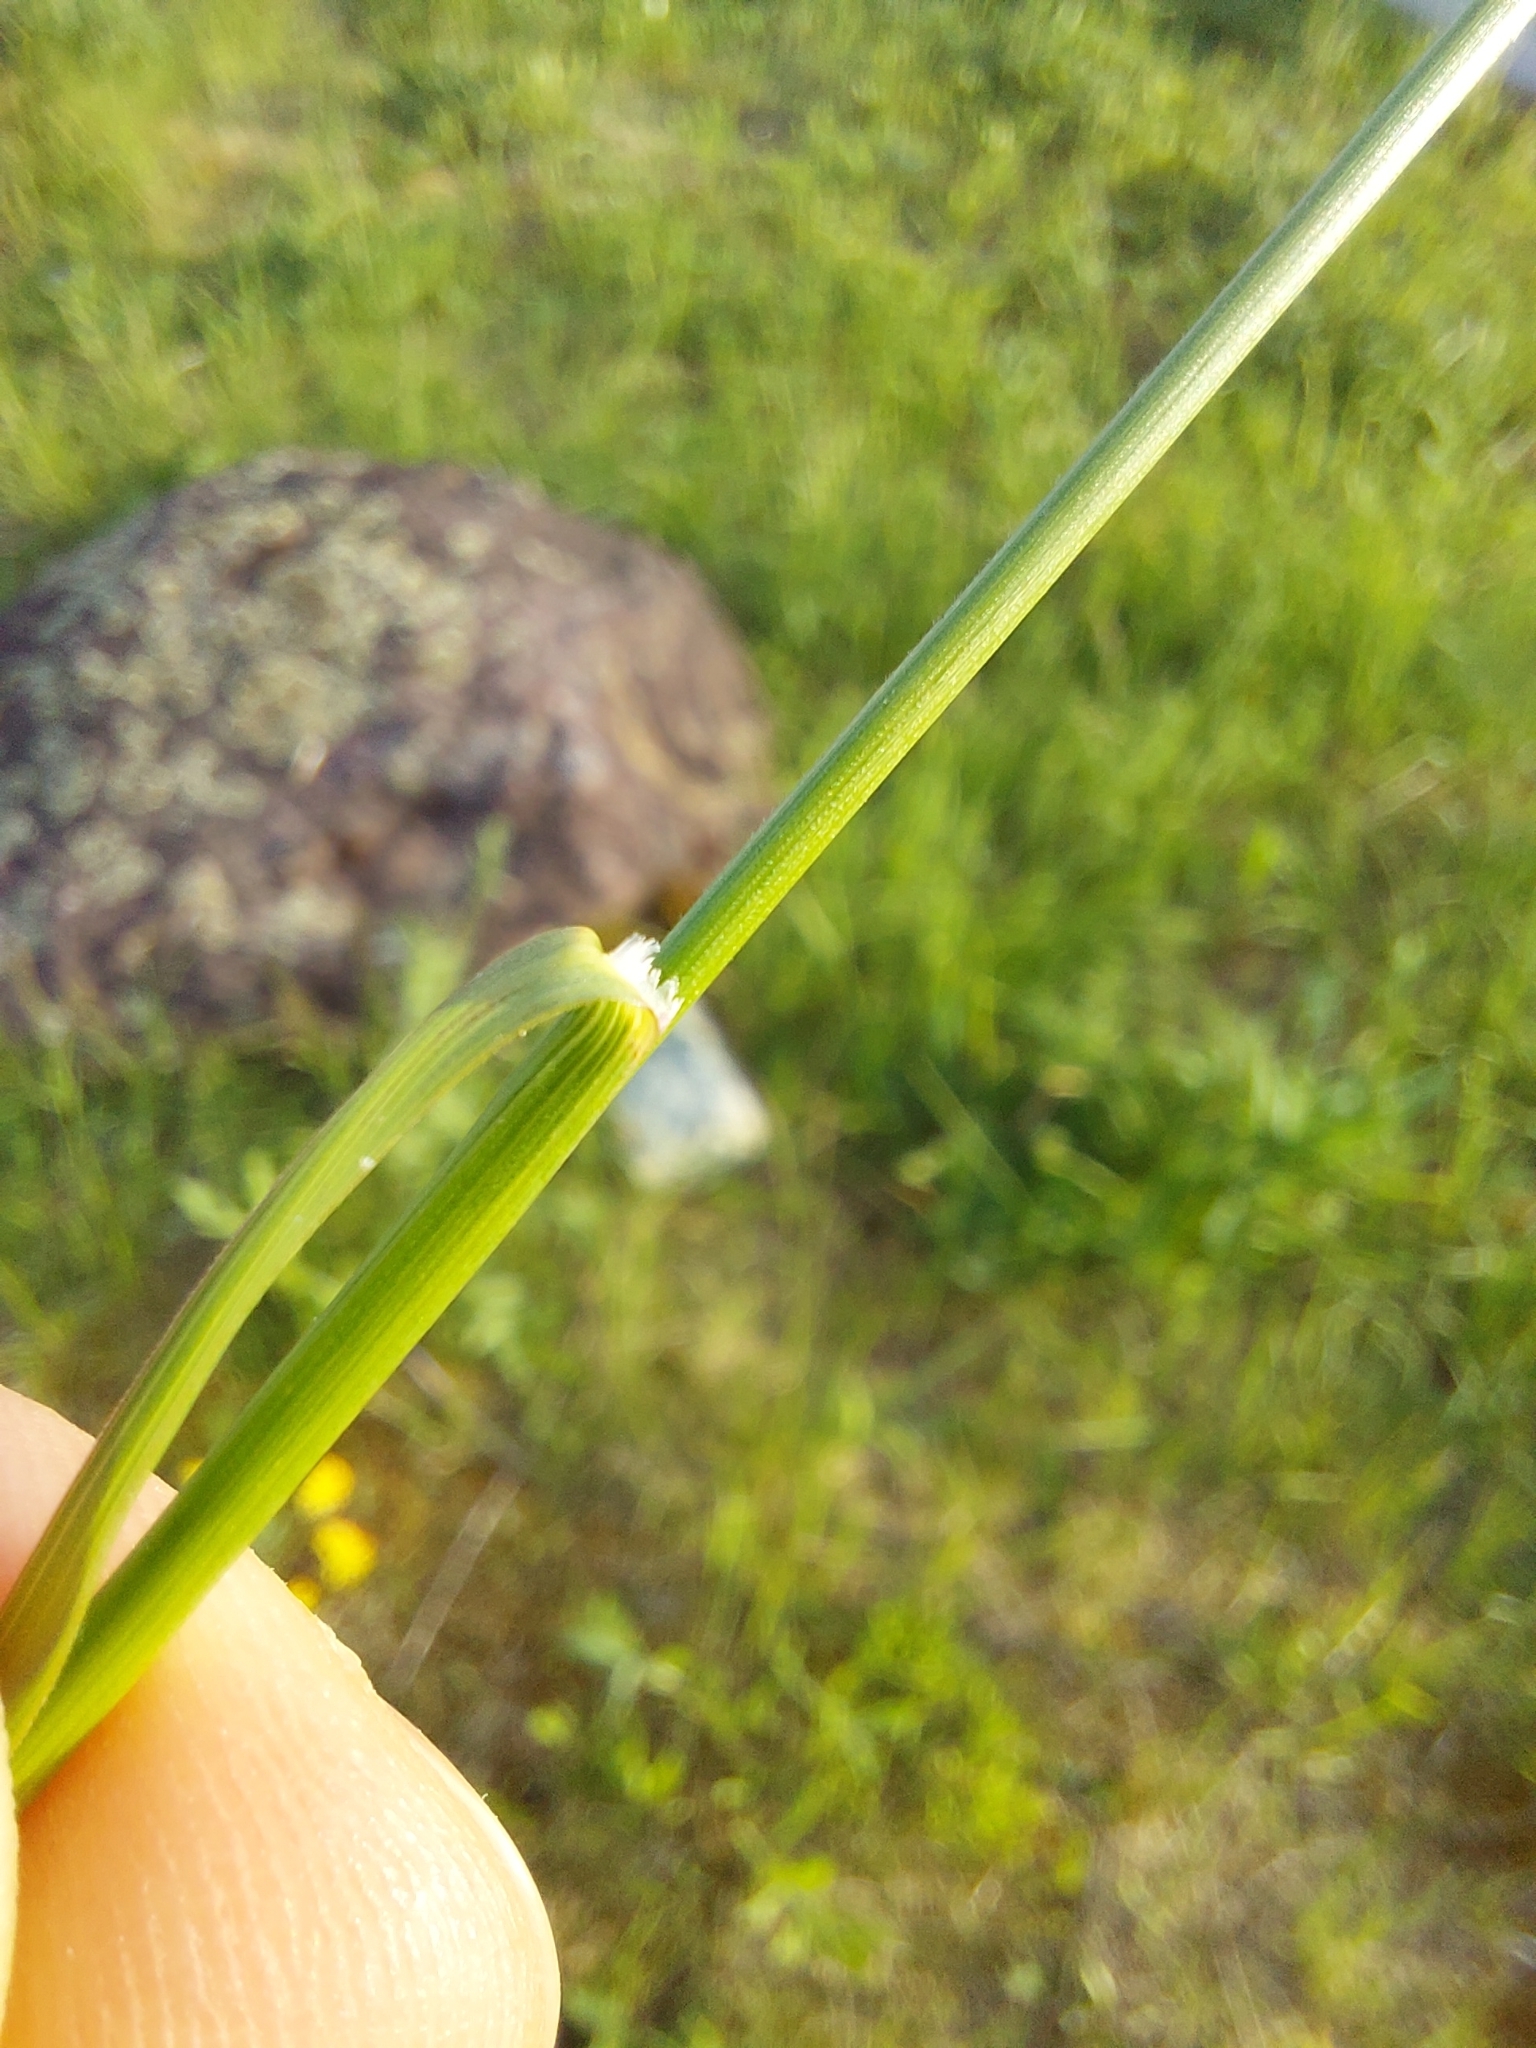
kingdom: Plantae
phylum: Tracheophyta
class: Liliopsida
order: Poales
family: Poaceae
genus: Bromus
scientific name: Bromus erectus
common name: Erect brome
